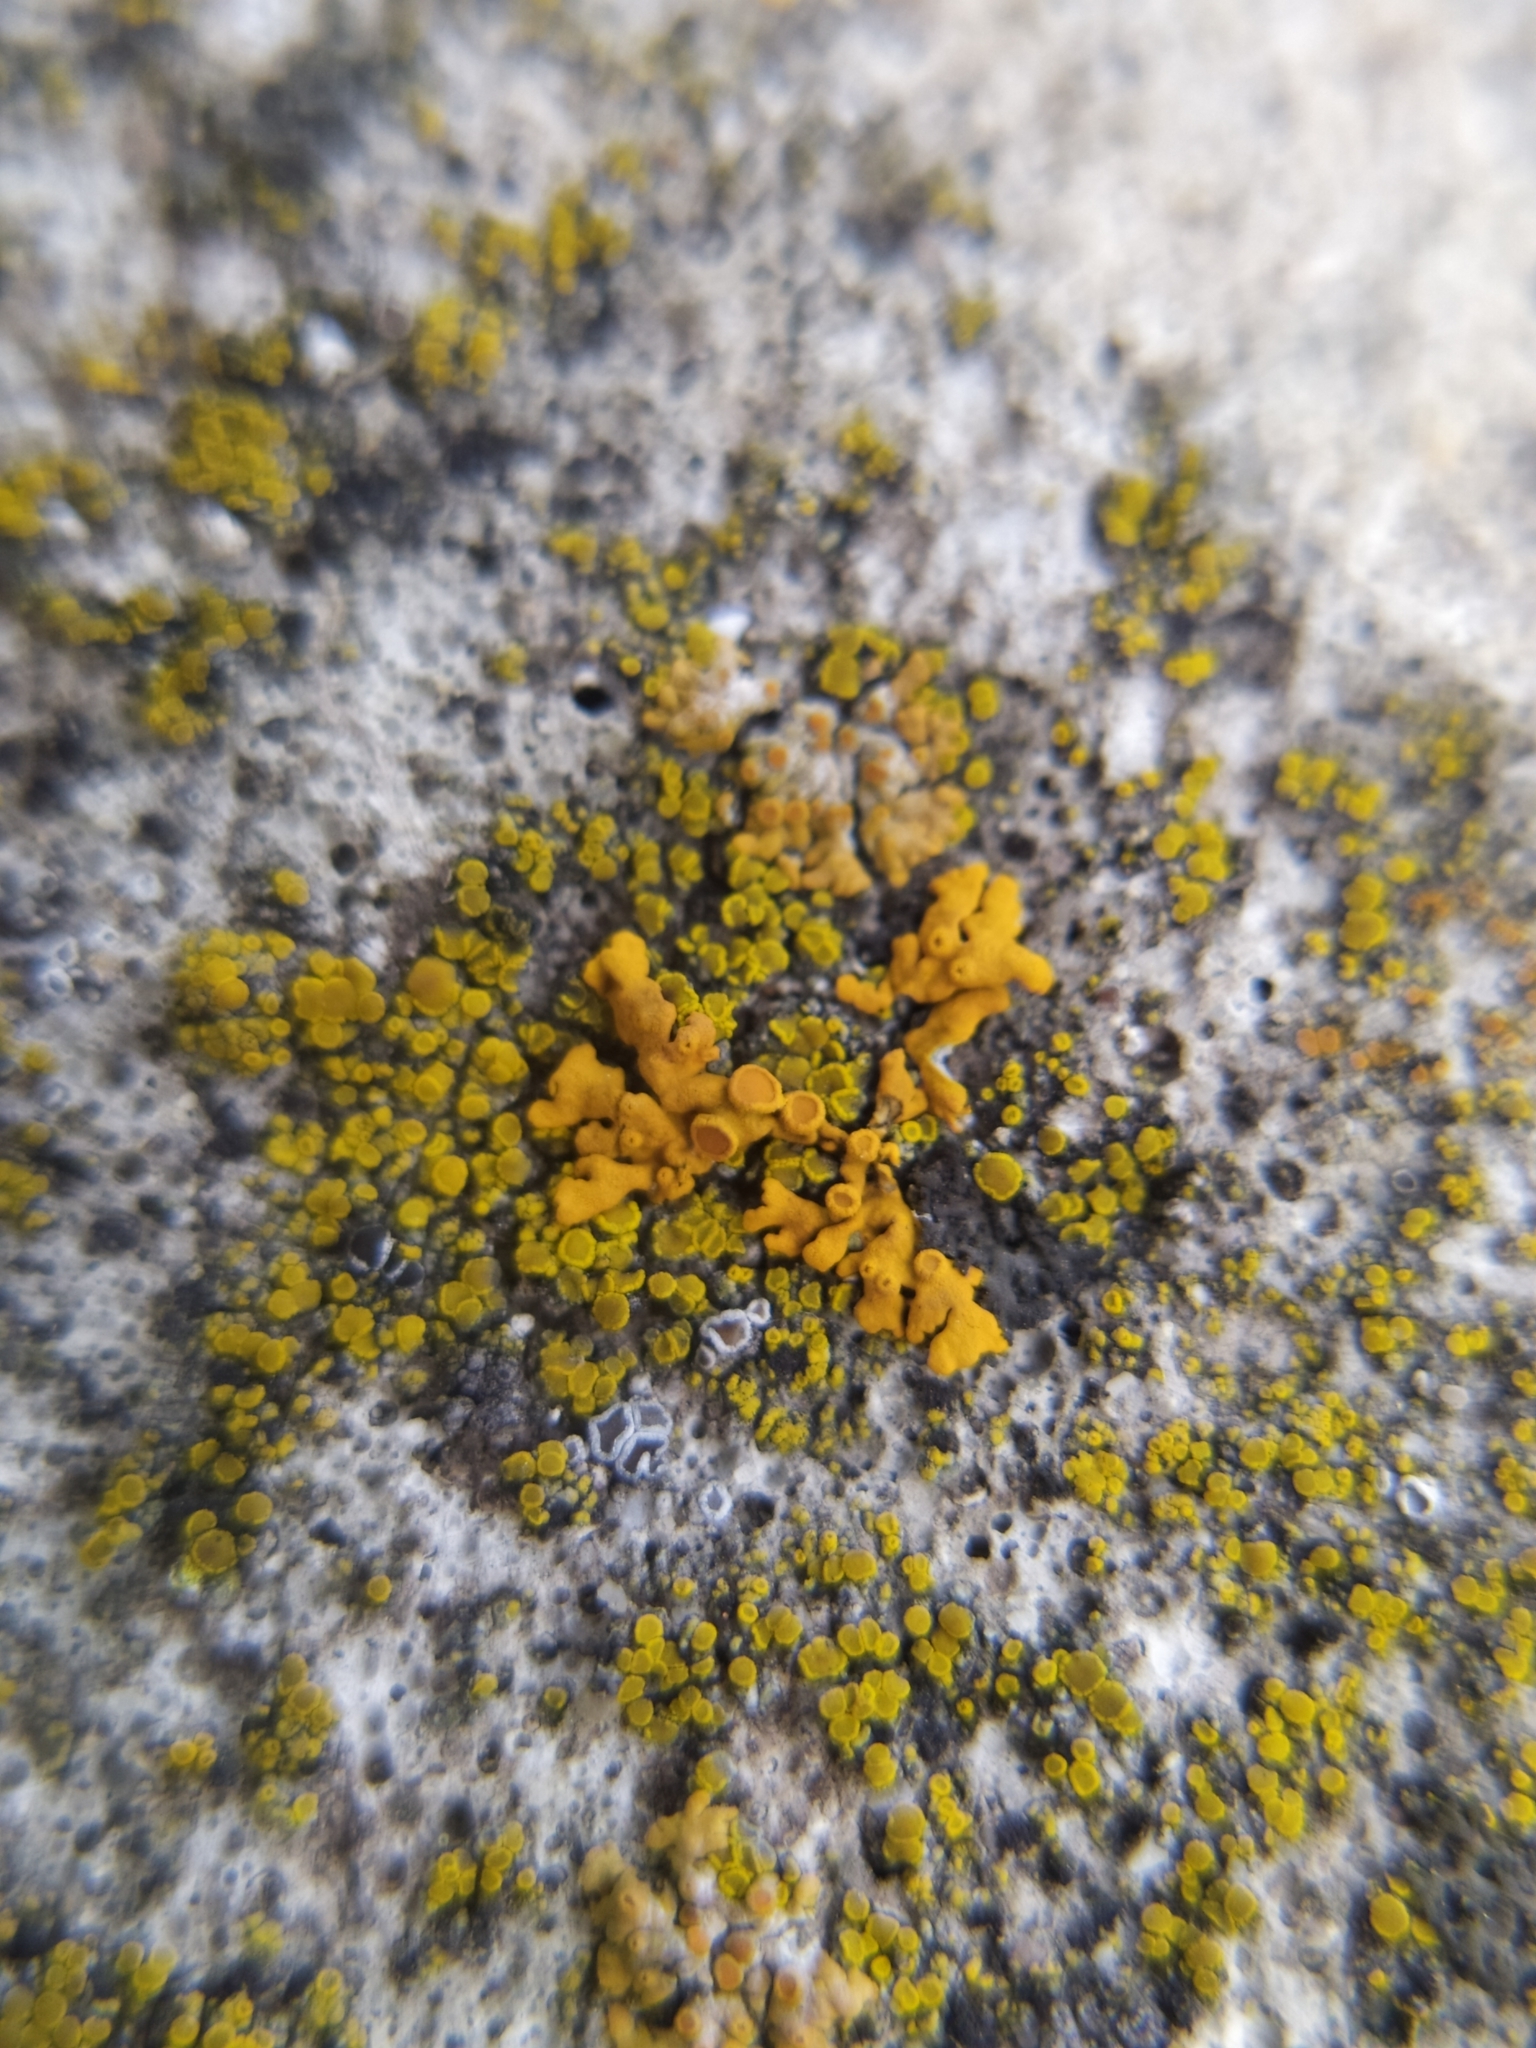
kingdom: Fungi
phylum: Ascomycota
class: Lecanoromycetes
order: Teloschistales
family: Teloschistaceae
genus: Xanthoria
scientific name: Xanthoria elegans
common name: Elegant sunburst lichen
